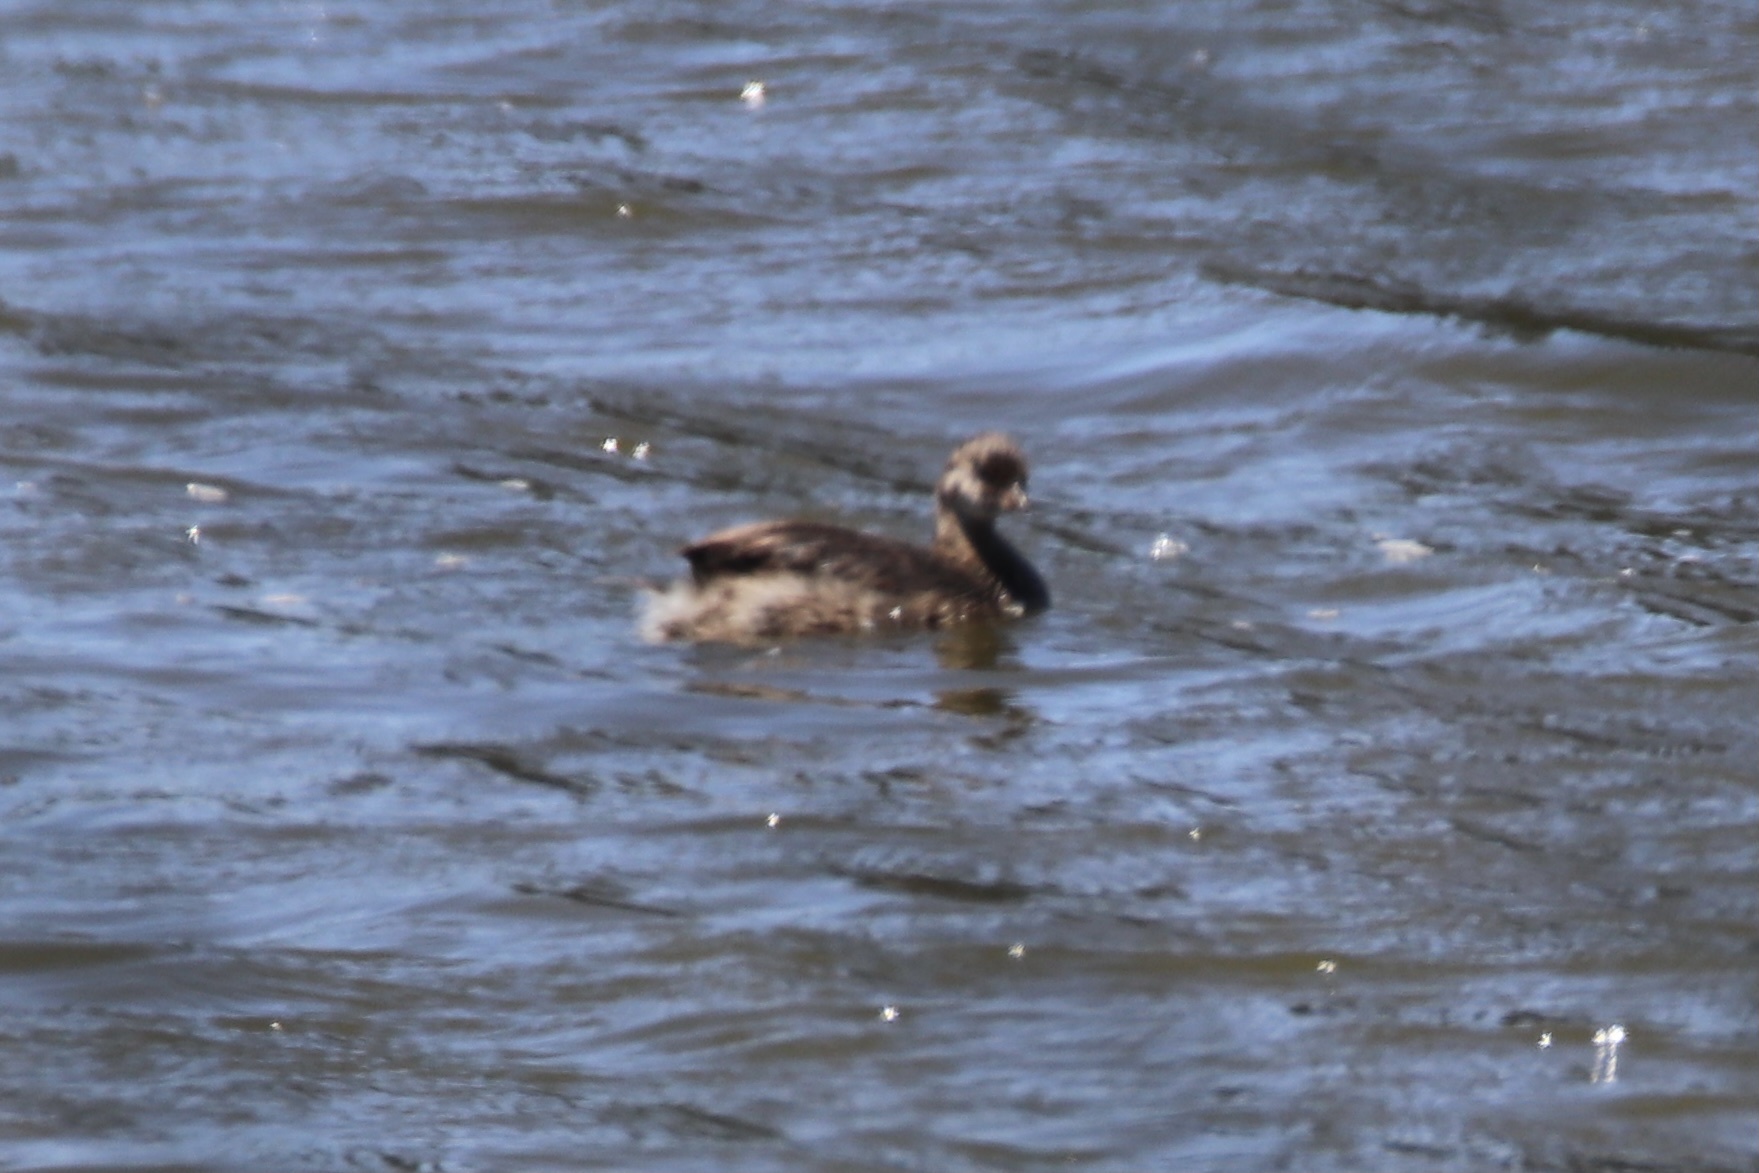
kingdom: Animalia
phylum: Chordata
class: Aves
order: Podicipediformes
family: Podicipedidae
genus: Podilymbus
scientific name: Podilymbus podiceps
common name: Pied-billed grebe
